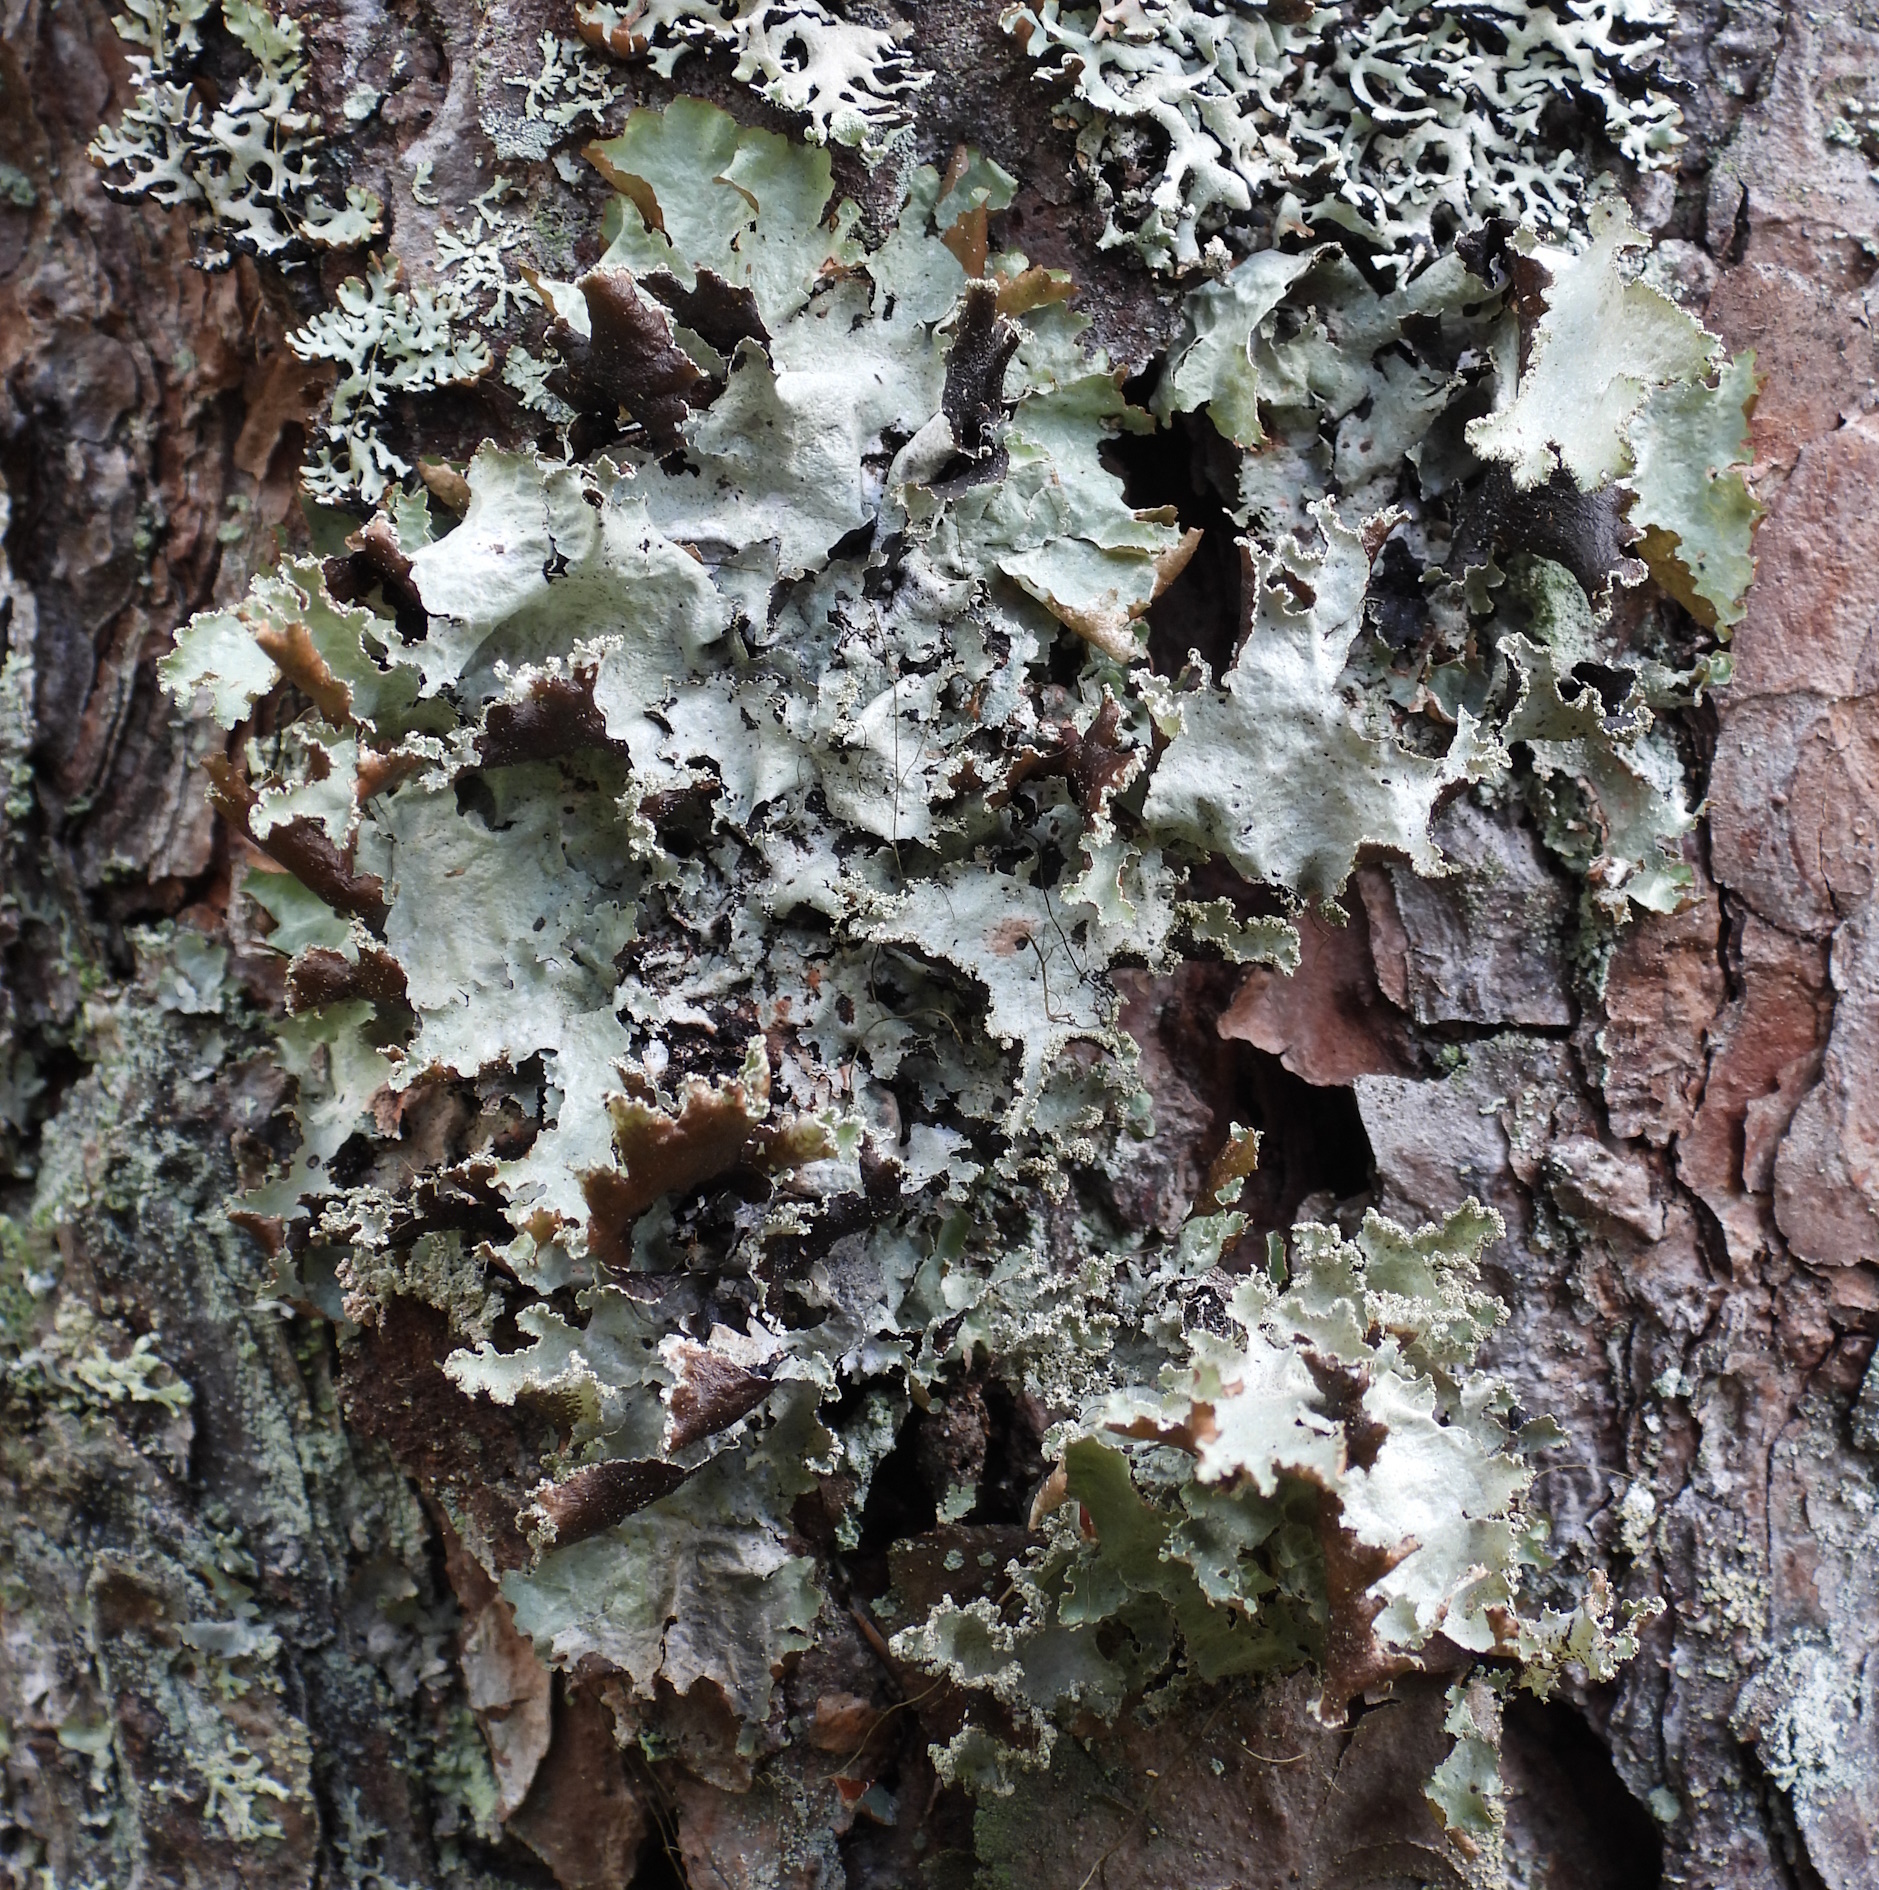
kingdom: Fungi
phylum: Ascomycota
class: Lecanoromycetes
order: Lecanorales
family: Parmeliaceae
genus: Platismatia
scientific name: Platismatia glauca
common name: Varied rag lichen
